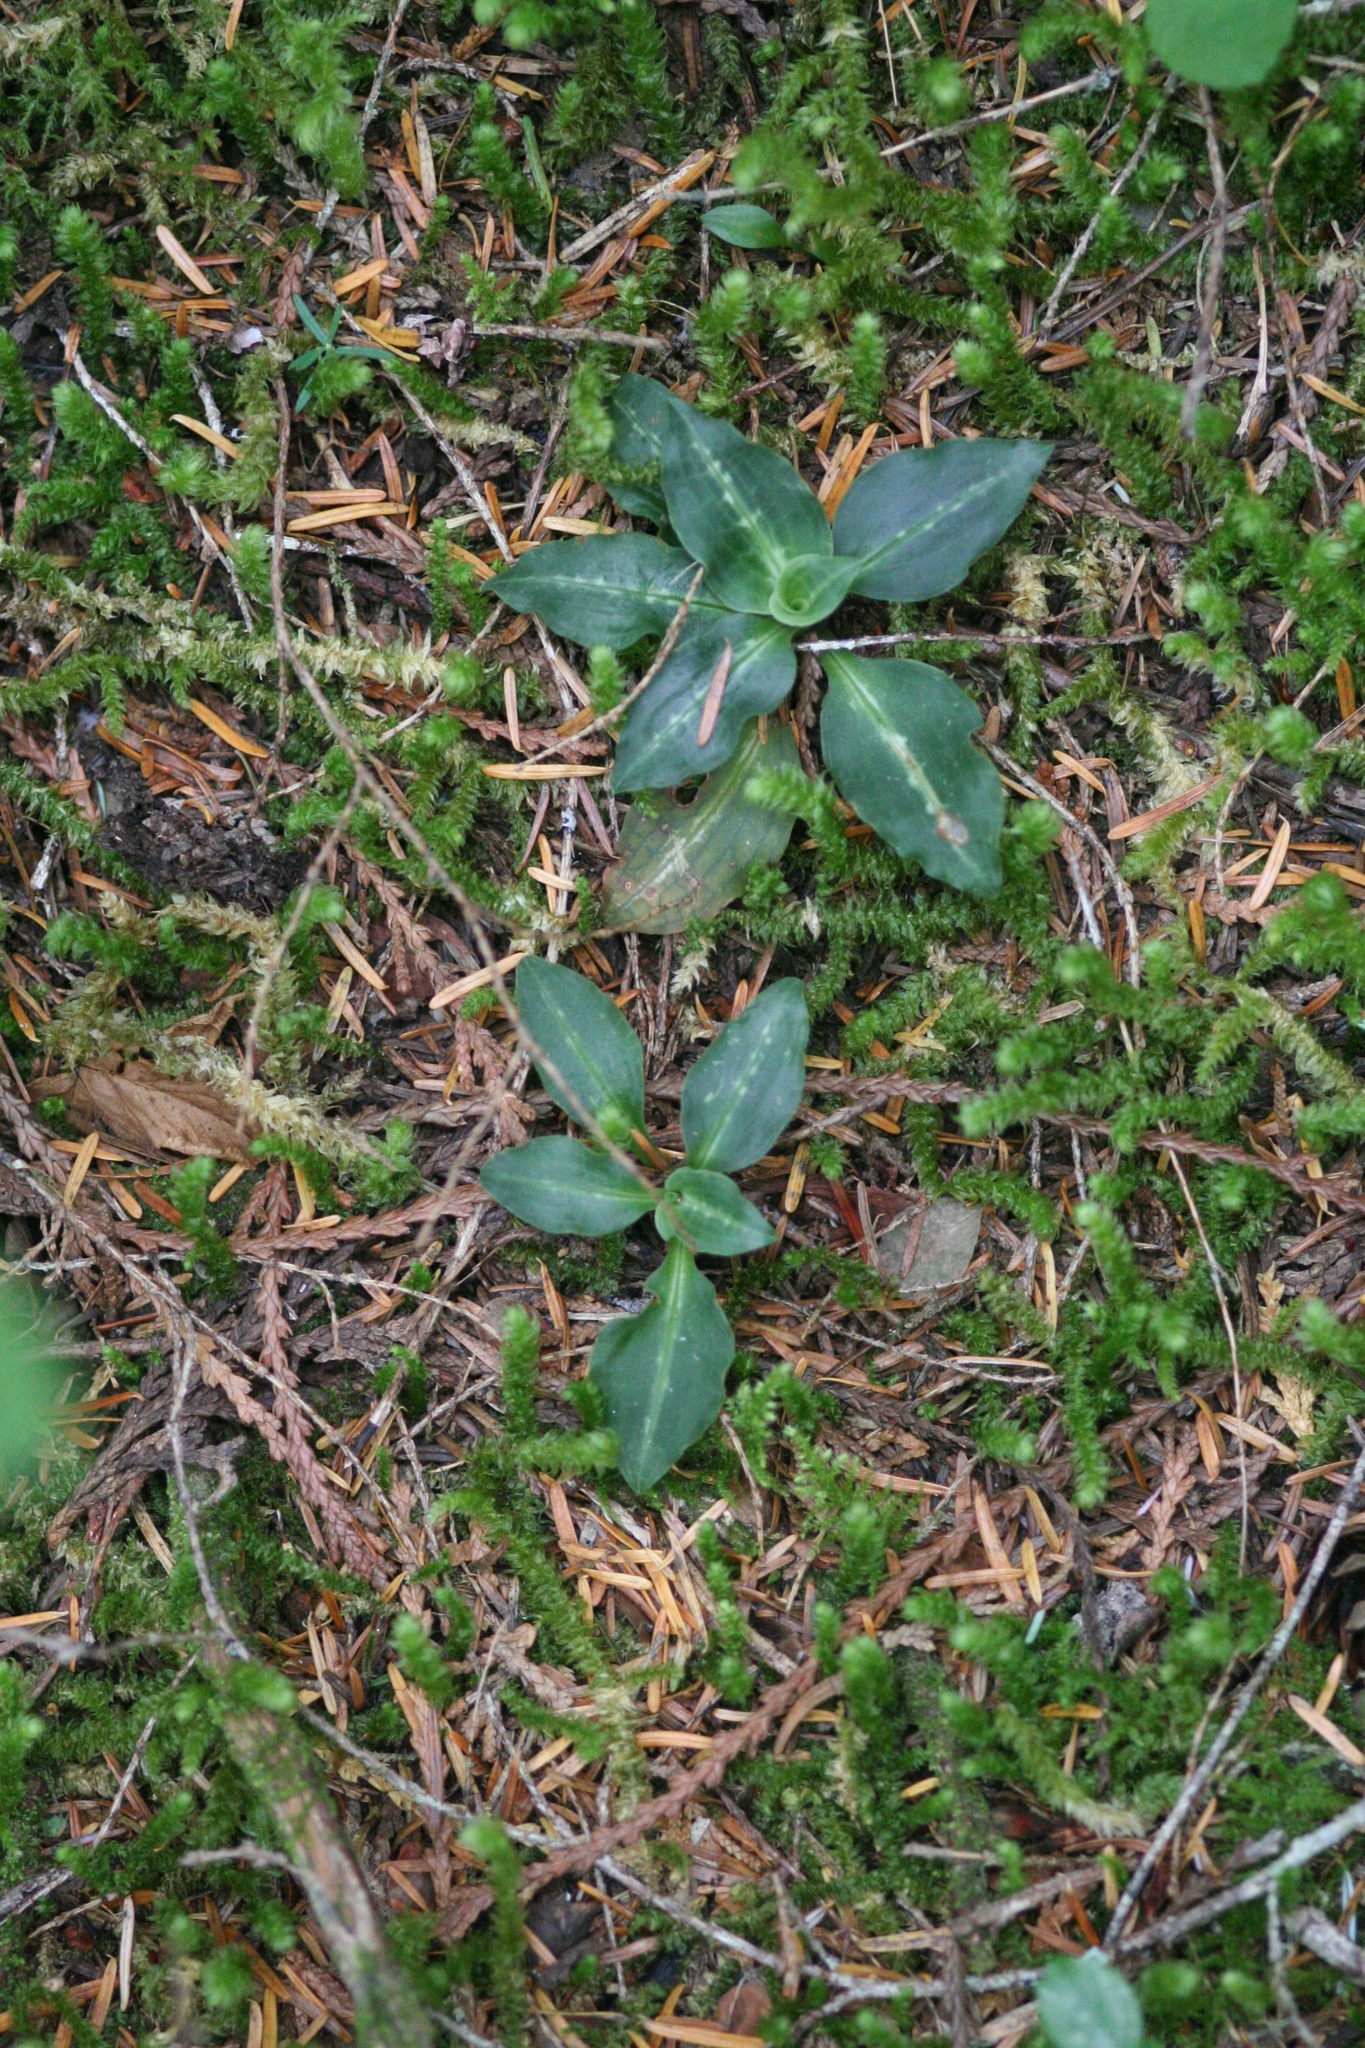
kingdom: Plantae
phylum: Tracheophyta
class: Liliopsida
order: Asparagales
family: Orchidaceae
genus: Goodyera
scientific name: Goodyera oblongifolia
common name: Giant rattlesnake-plantain
